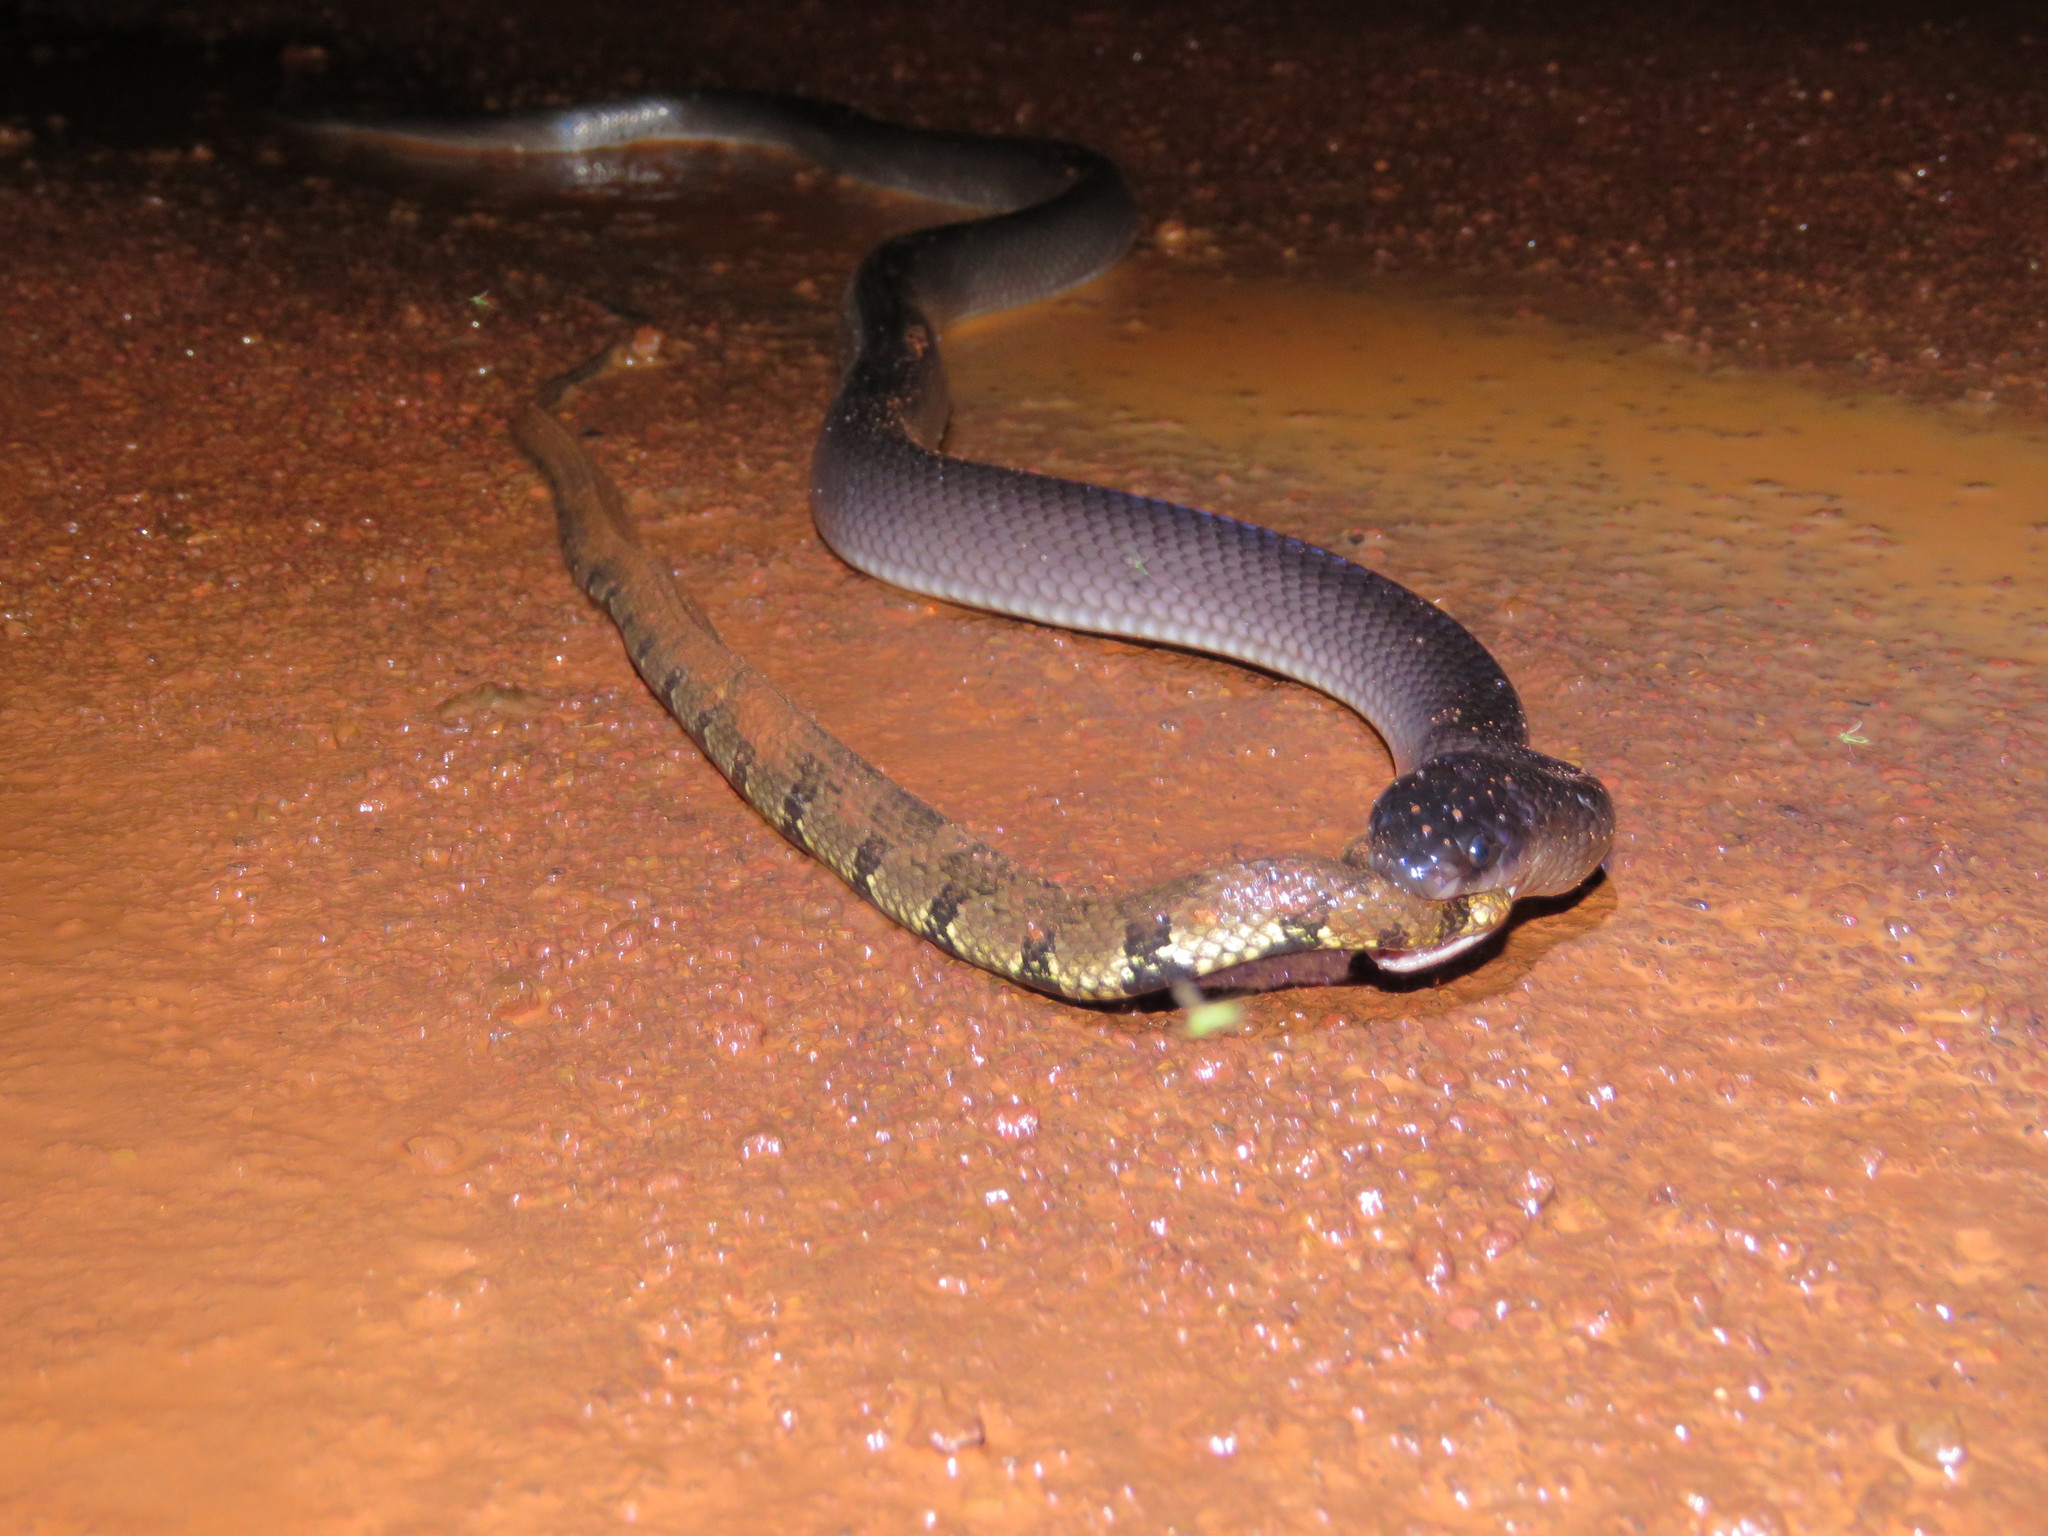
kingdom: Animalia
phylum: Chordata
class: Squamata
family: Colubridae
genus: Helicops
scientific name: Helicops angulatus
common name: Mountain keelback
